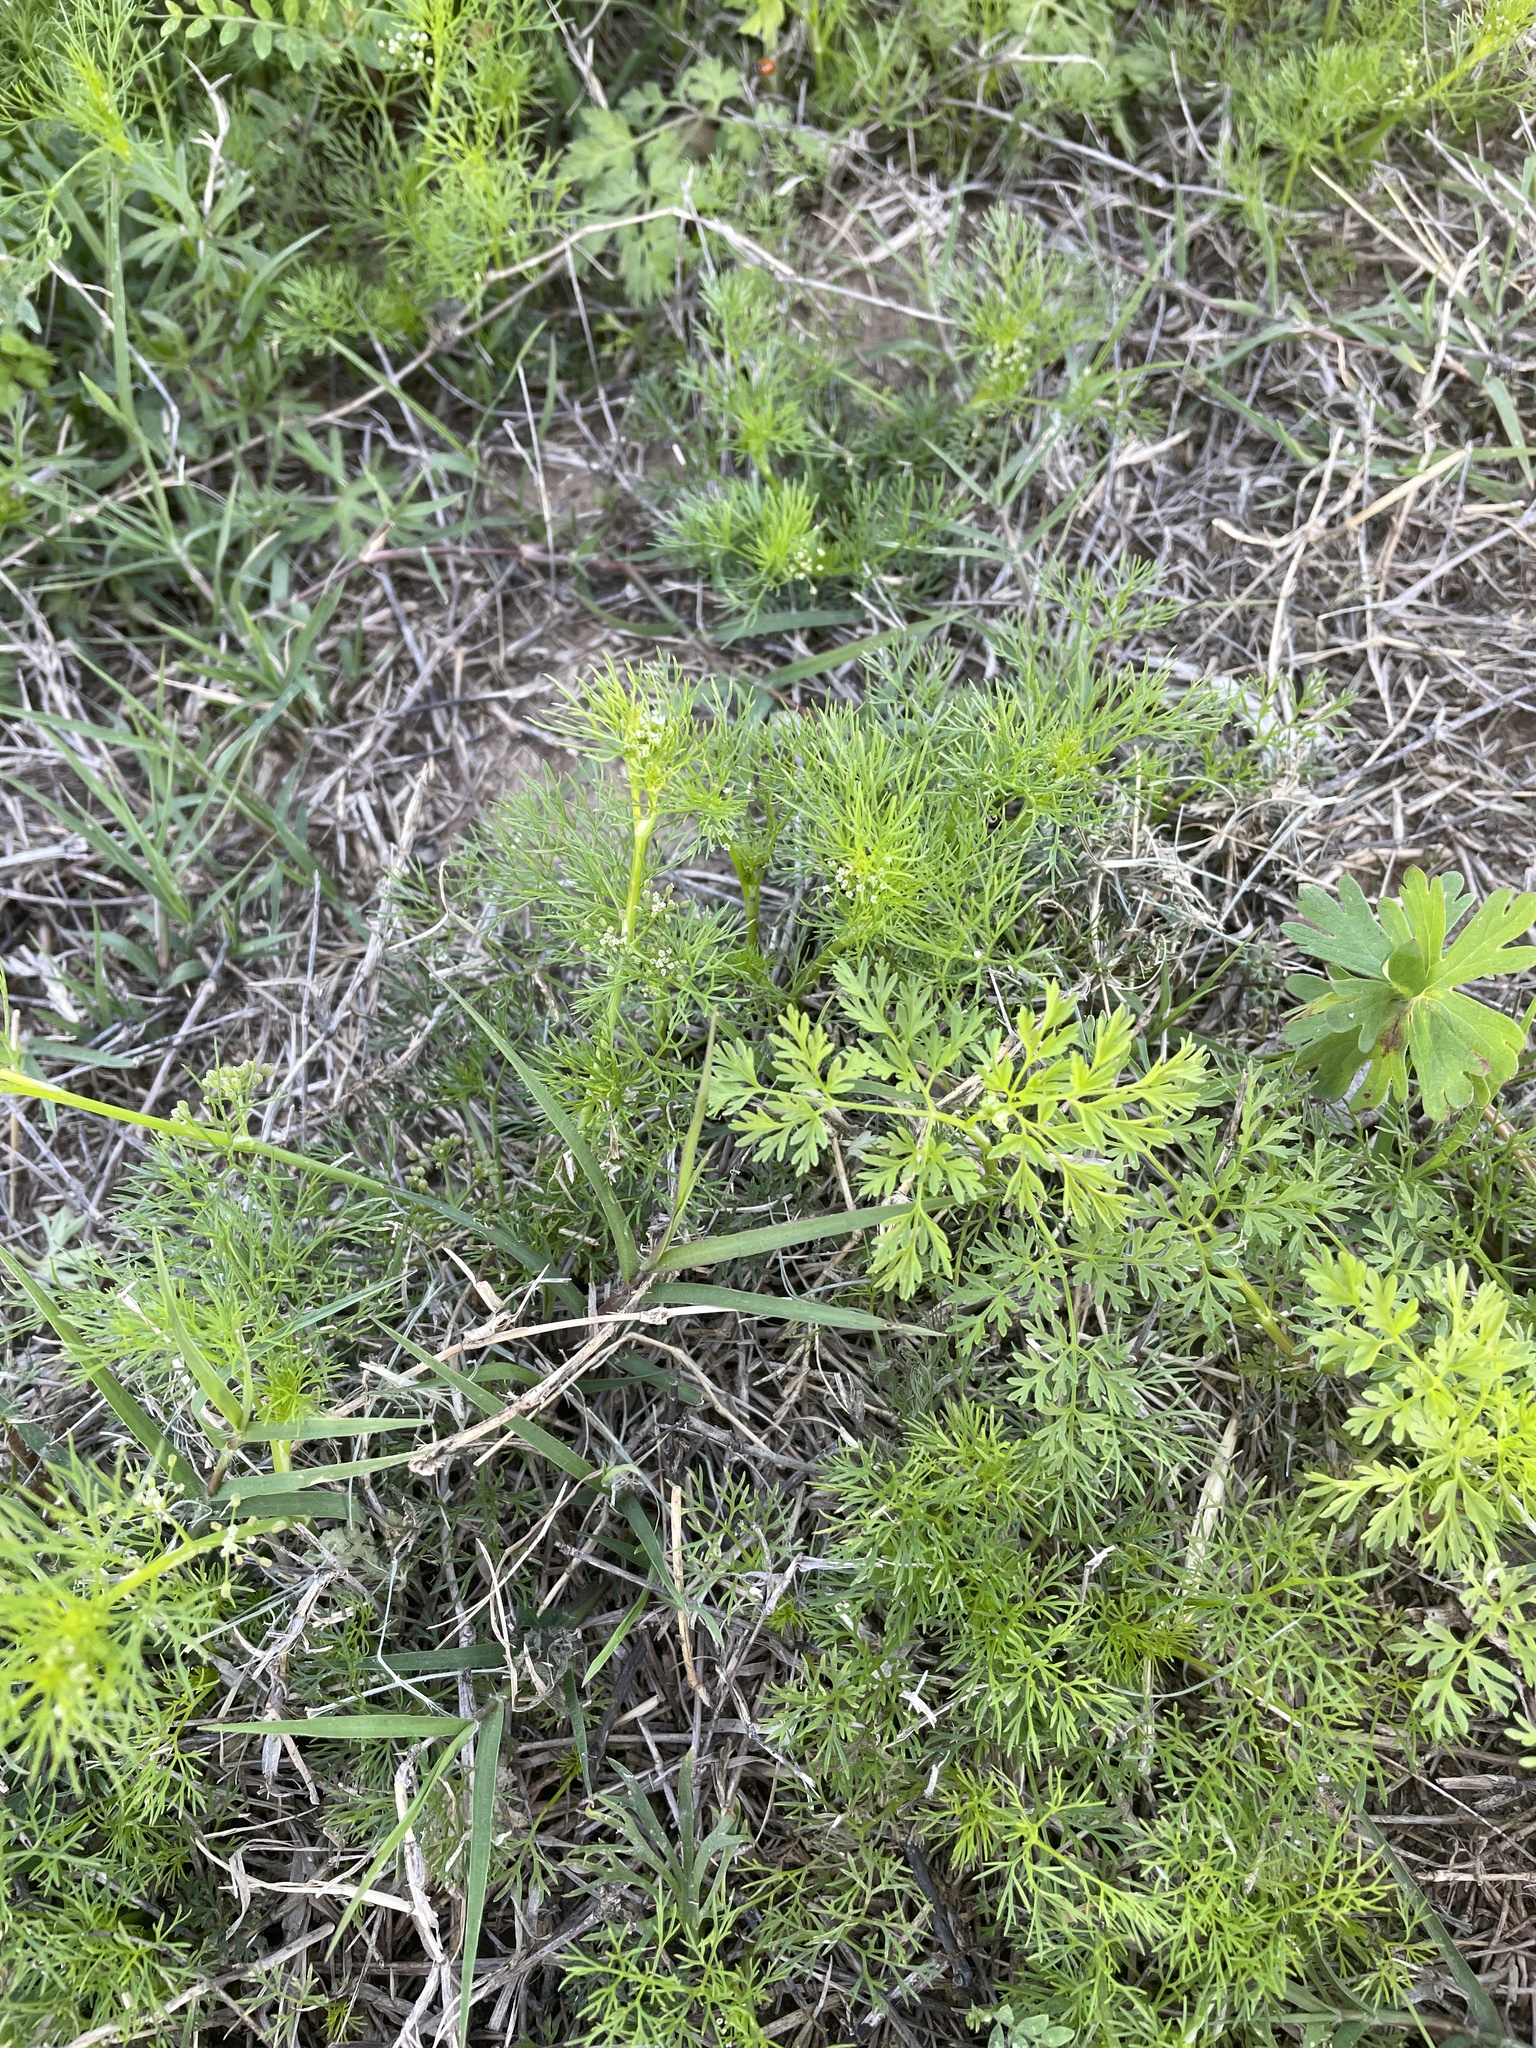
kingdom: Plantae
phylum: Tracheophyta
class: Magnoliopsida
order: Apiales
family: Apiaceae
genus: Cyclospermum
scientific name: Cyclospermum leptophyllum
